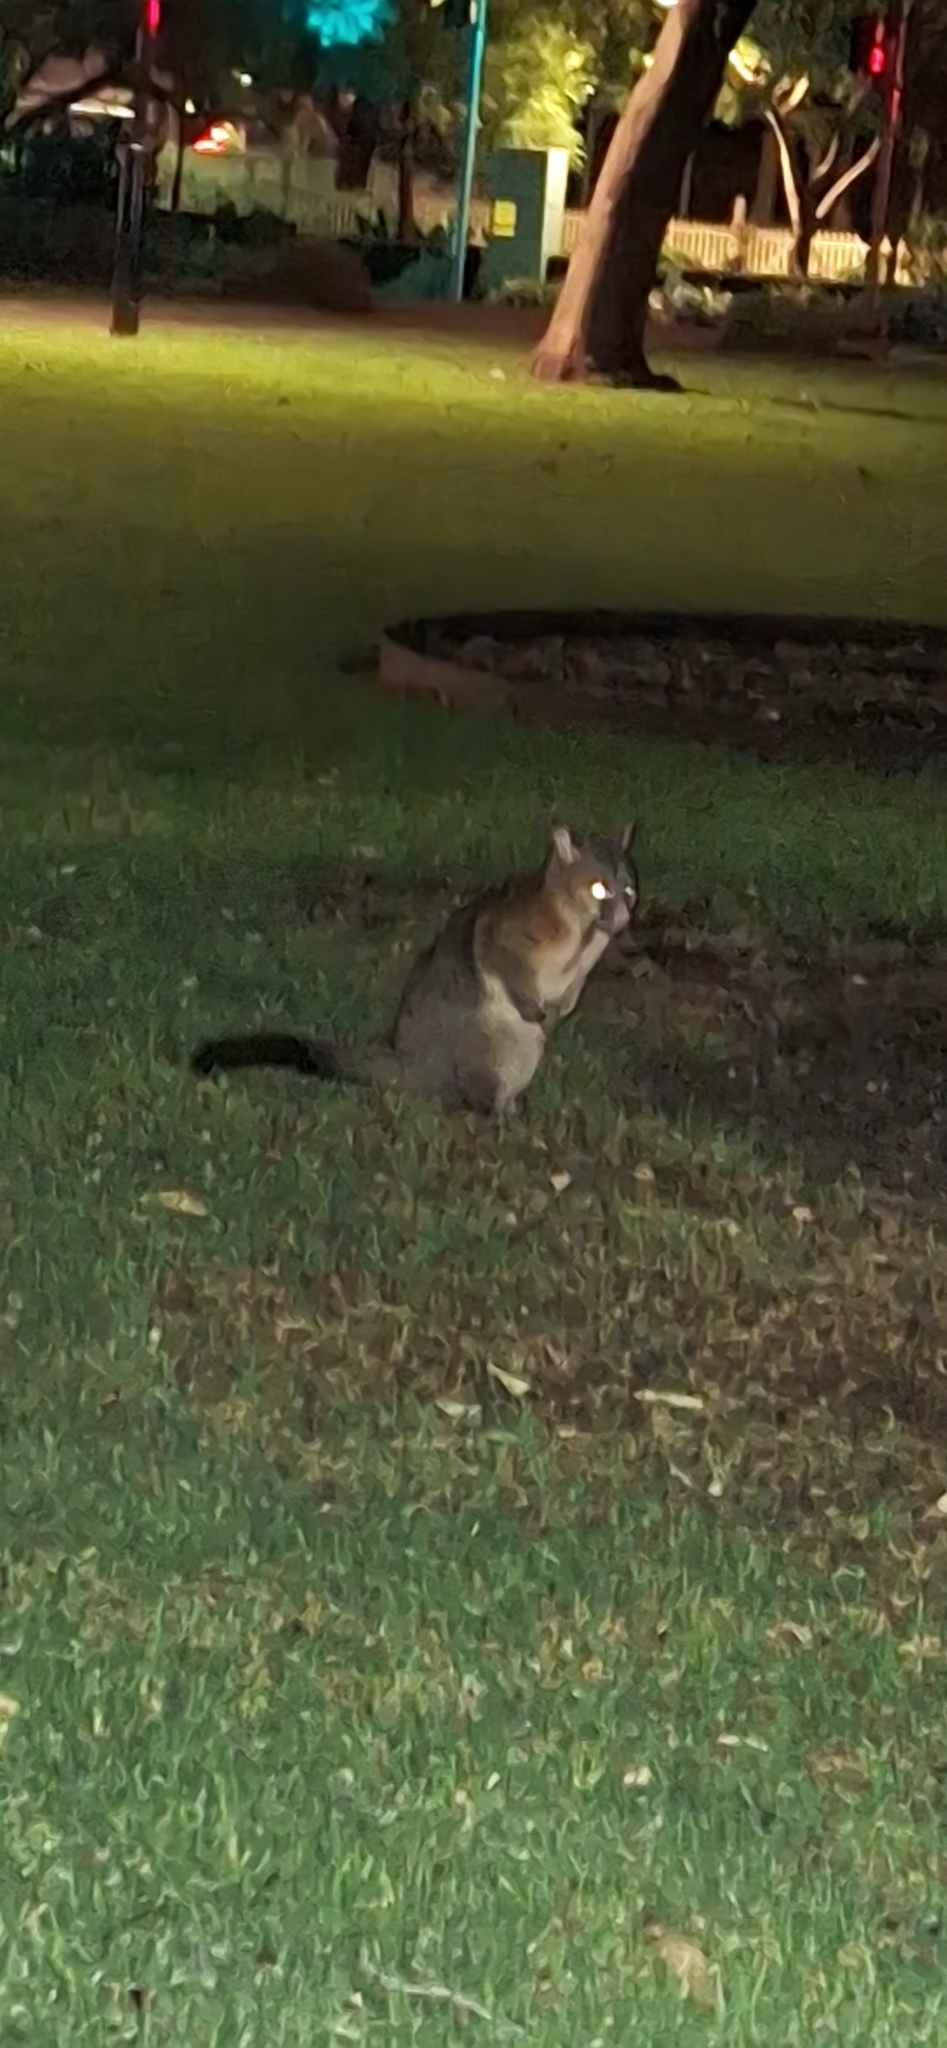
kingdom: Animalia
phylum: Chordata
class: Mammalia
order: Diprotodontia
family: Phalangeridae
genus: Trichosurus
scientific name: Trichosurus vulpecula
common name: Common brushtail
